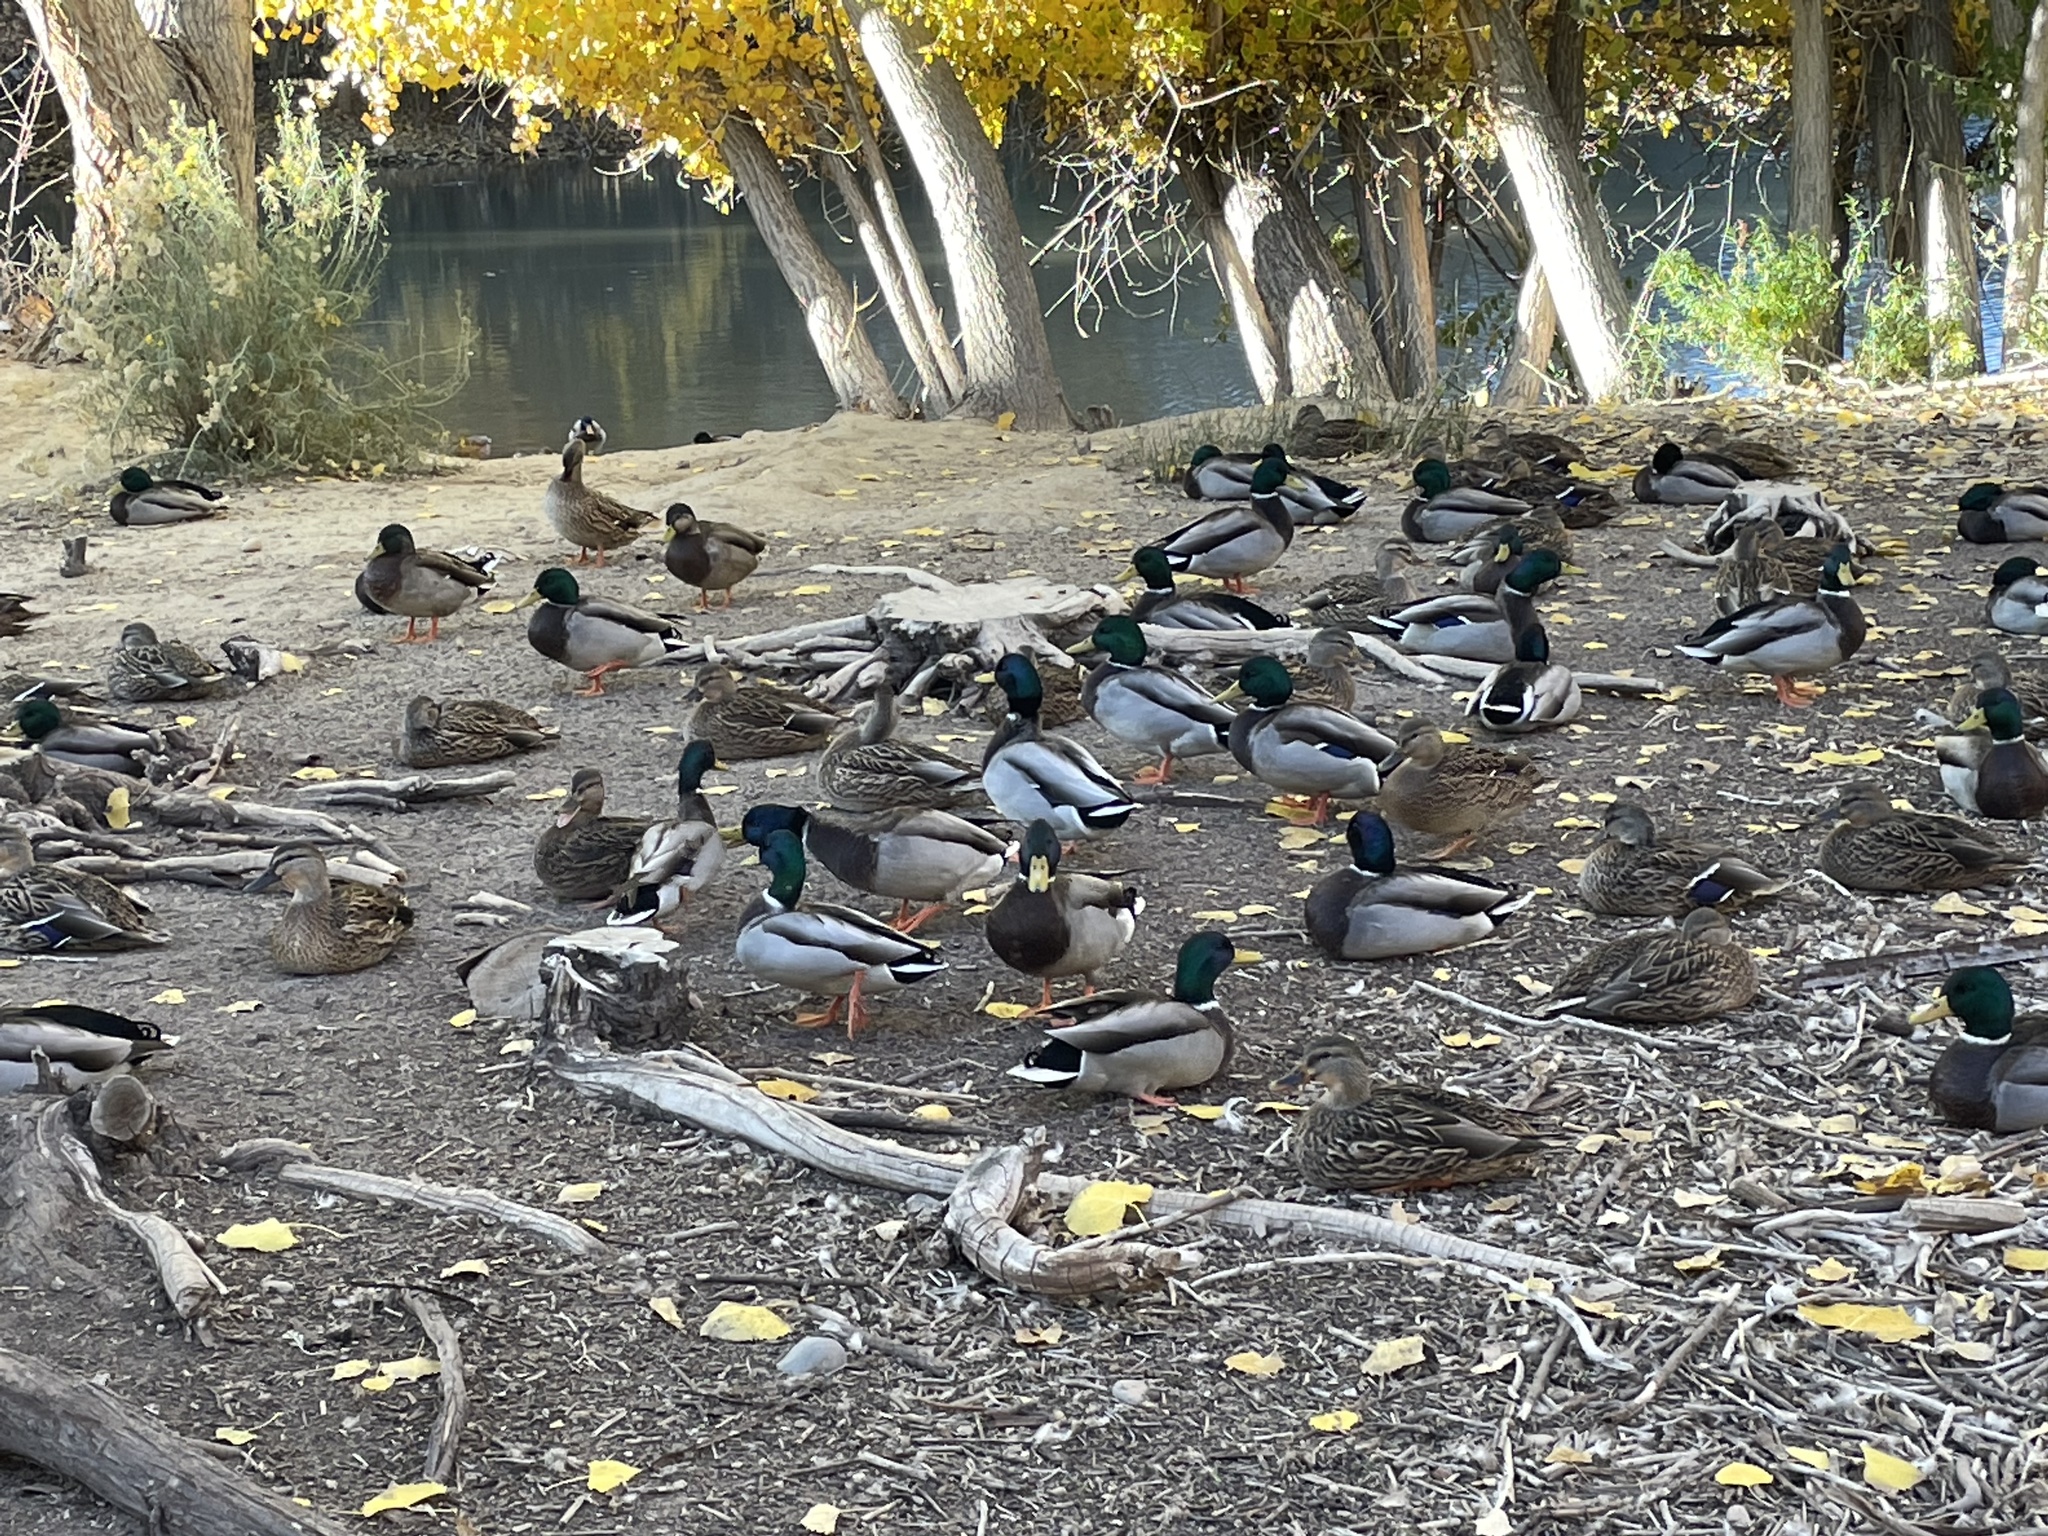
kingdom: Animalia
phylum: Chordata
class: Aves
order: Anseriformes
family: Anatidae
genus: Anas
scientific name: Anas platyrhynchos
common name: Mallard
